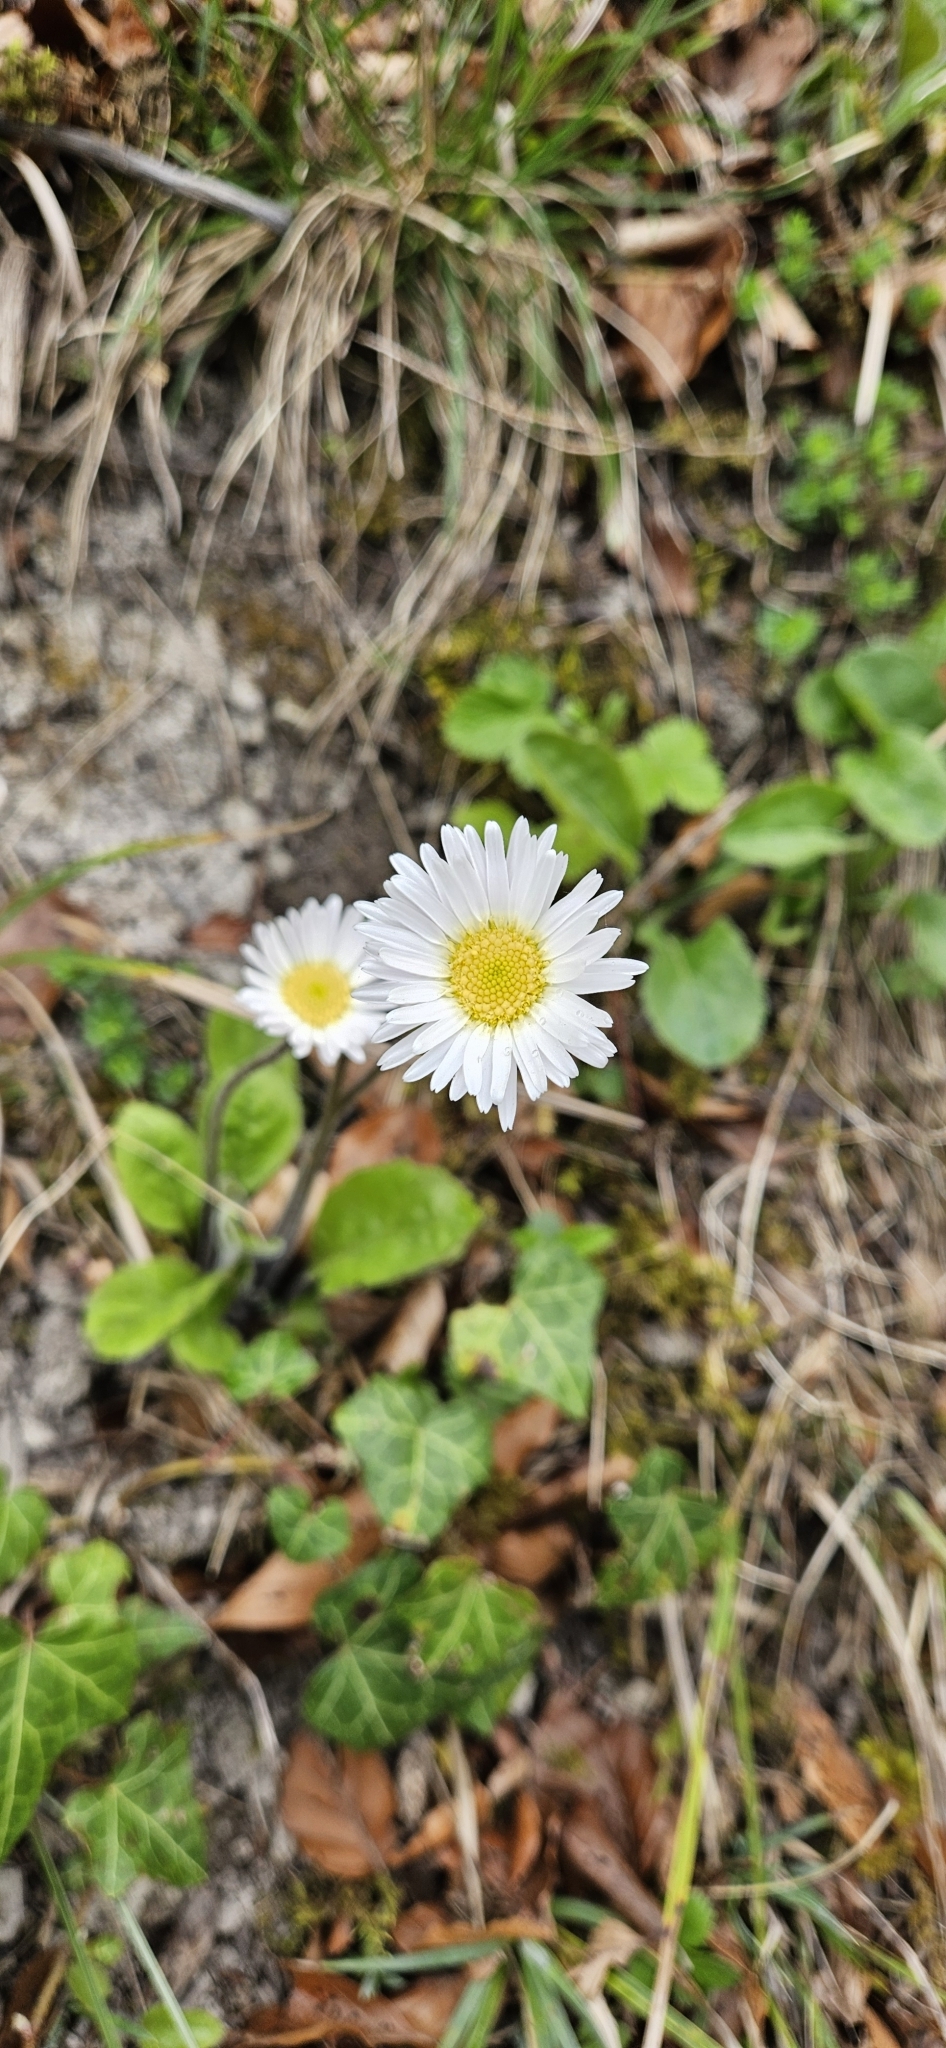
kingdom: Plantae
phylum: Tracheophyta
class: Magnoliopsida
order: Asterales
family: Asteraceae
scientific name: Asteraceae
